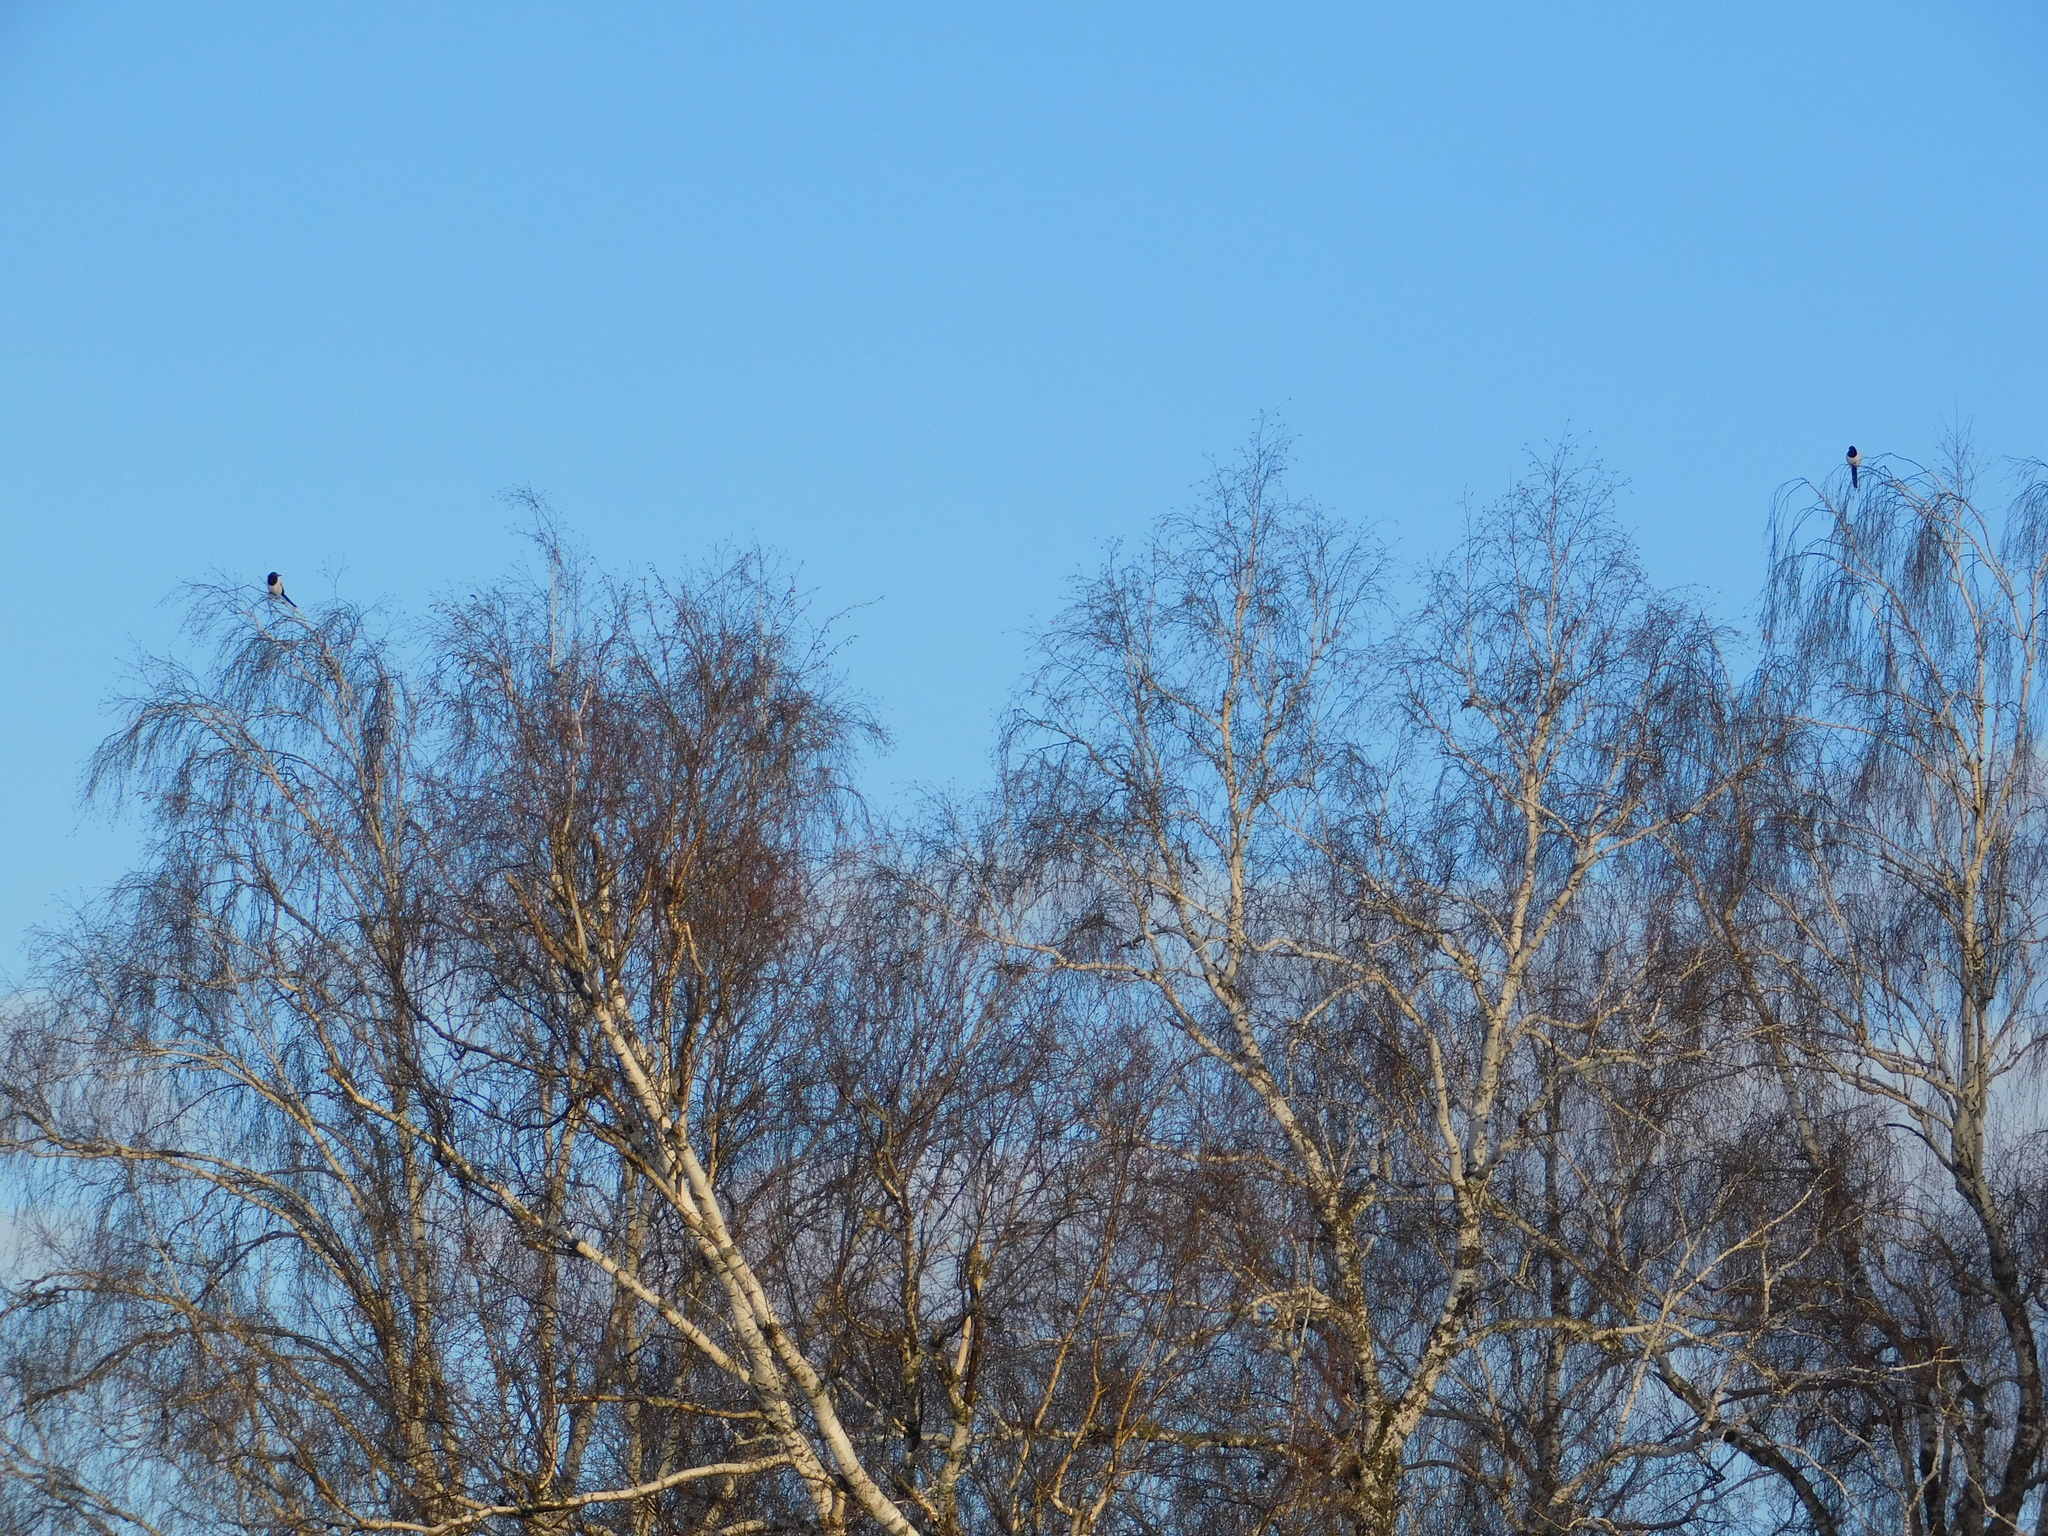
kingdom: Animalia
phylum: Chordata
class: Aves
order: Passeriformes
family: Corvidae
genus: Pica
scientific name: Pica pica
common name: Eurasian magpie
